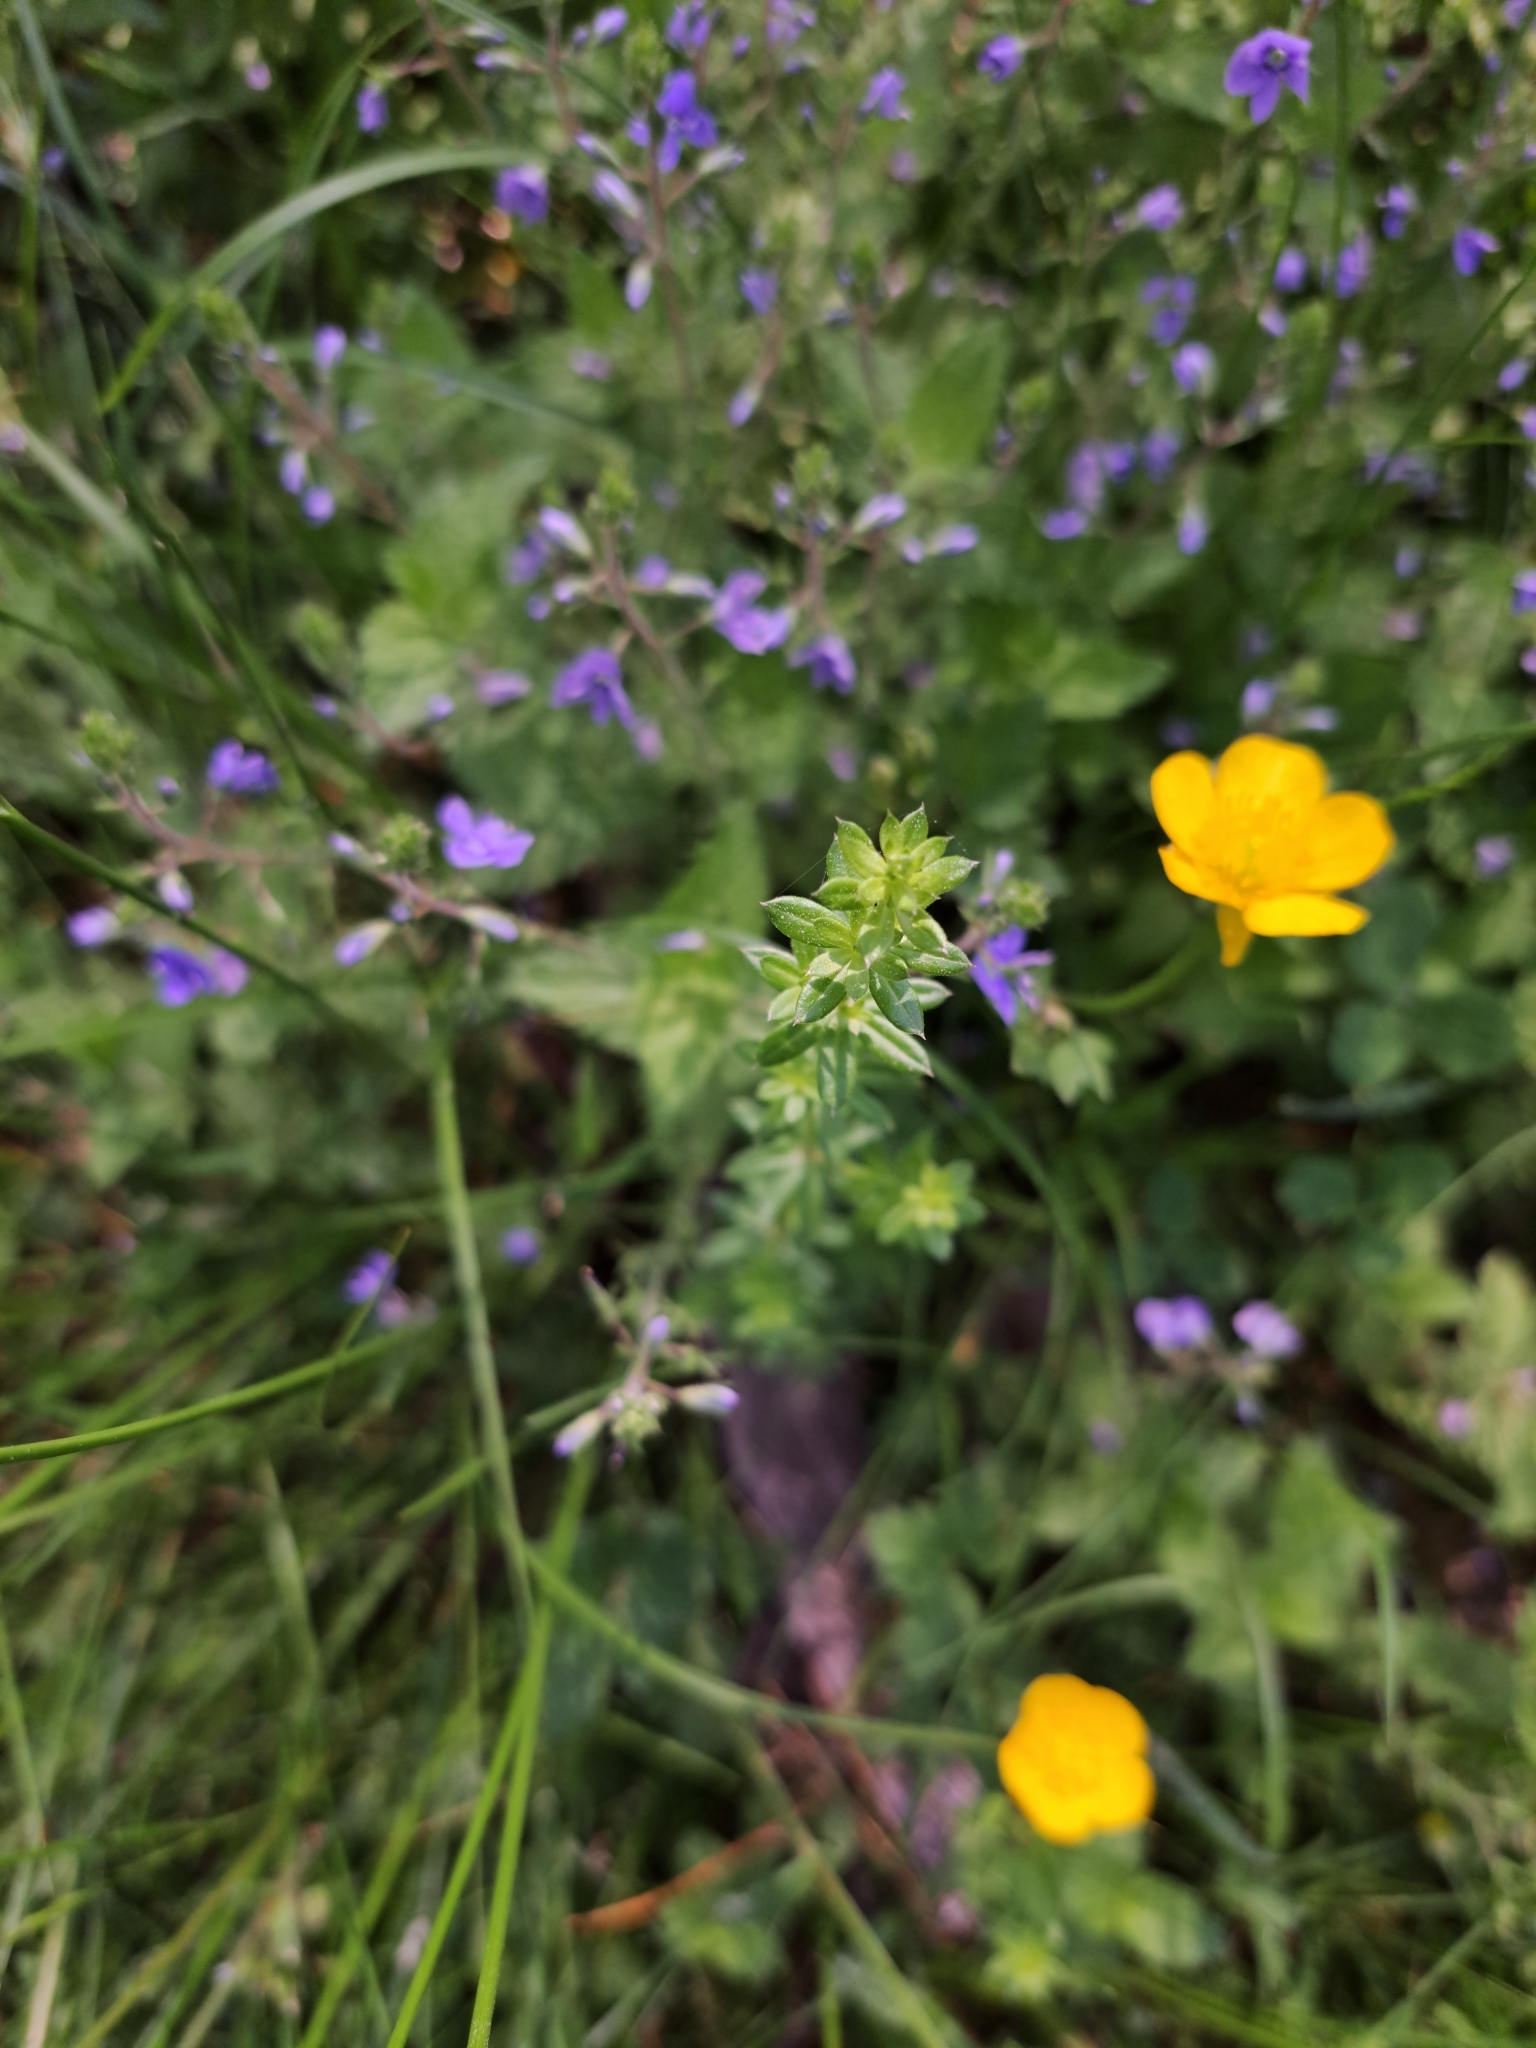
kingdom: Plantae
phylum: Tracheophyta
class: Magnoliopsida
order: Lamiales
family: Plantaginaceae
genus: Veronica
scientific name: Veronica chamaedrys
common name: Germander speedwell
